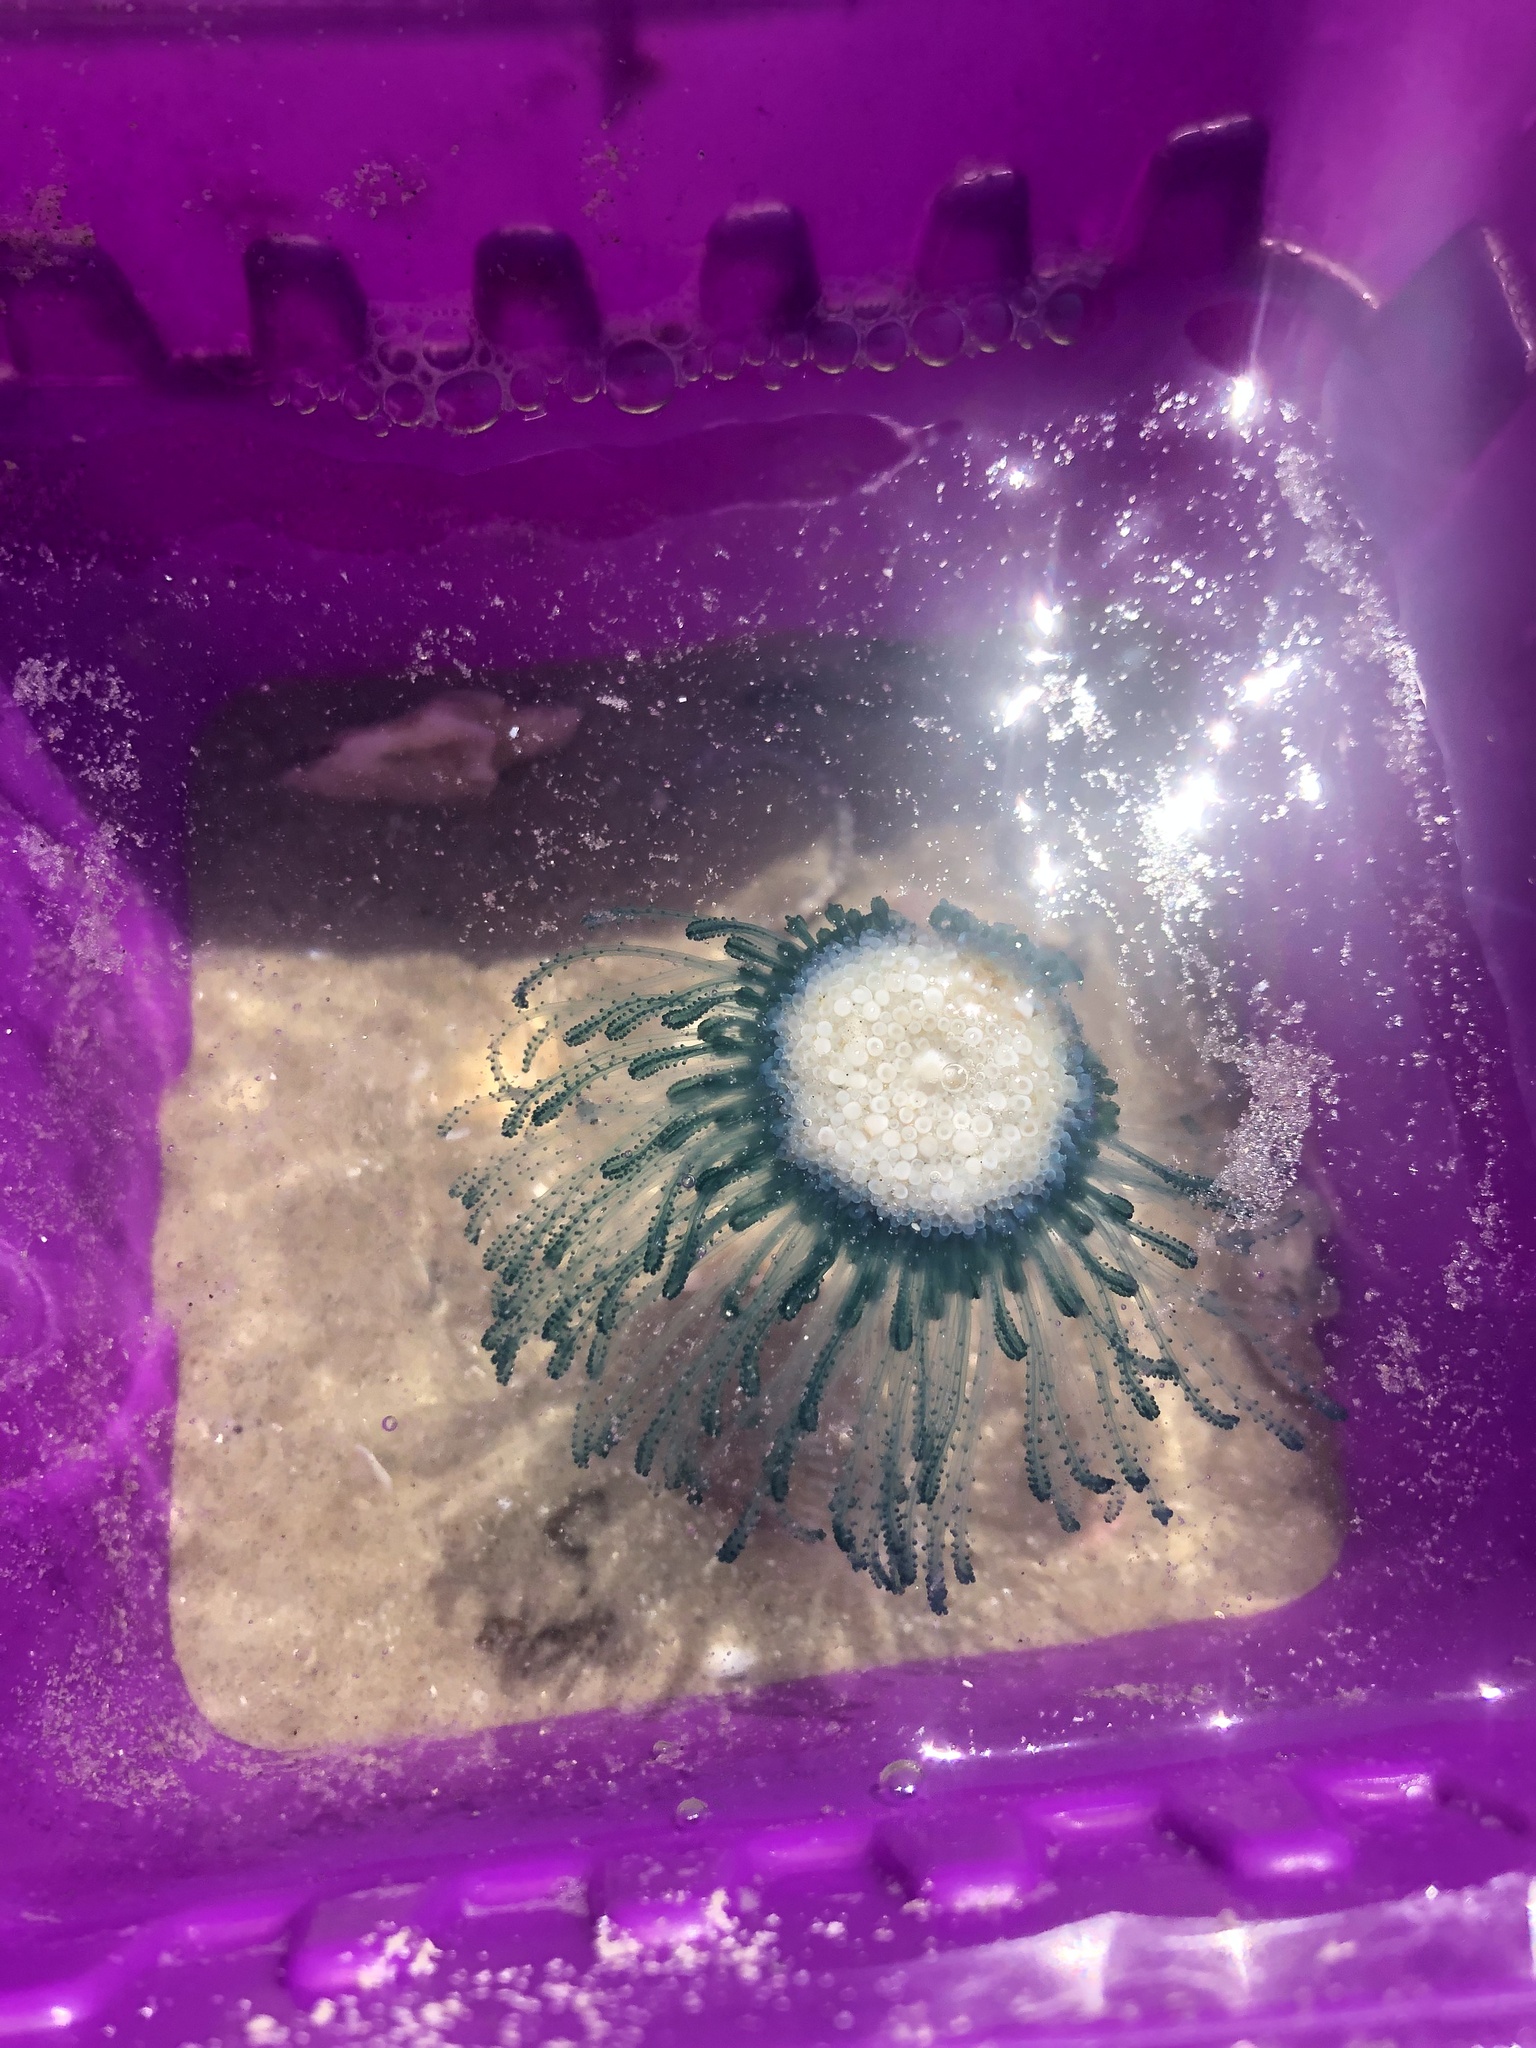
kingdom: Animalia
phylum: Cnidaria
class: Hydrozoa
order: Anthoathecata
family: Porpitidae
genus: Porpita
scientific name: Porpita porpita
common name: Blue button
